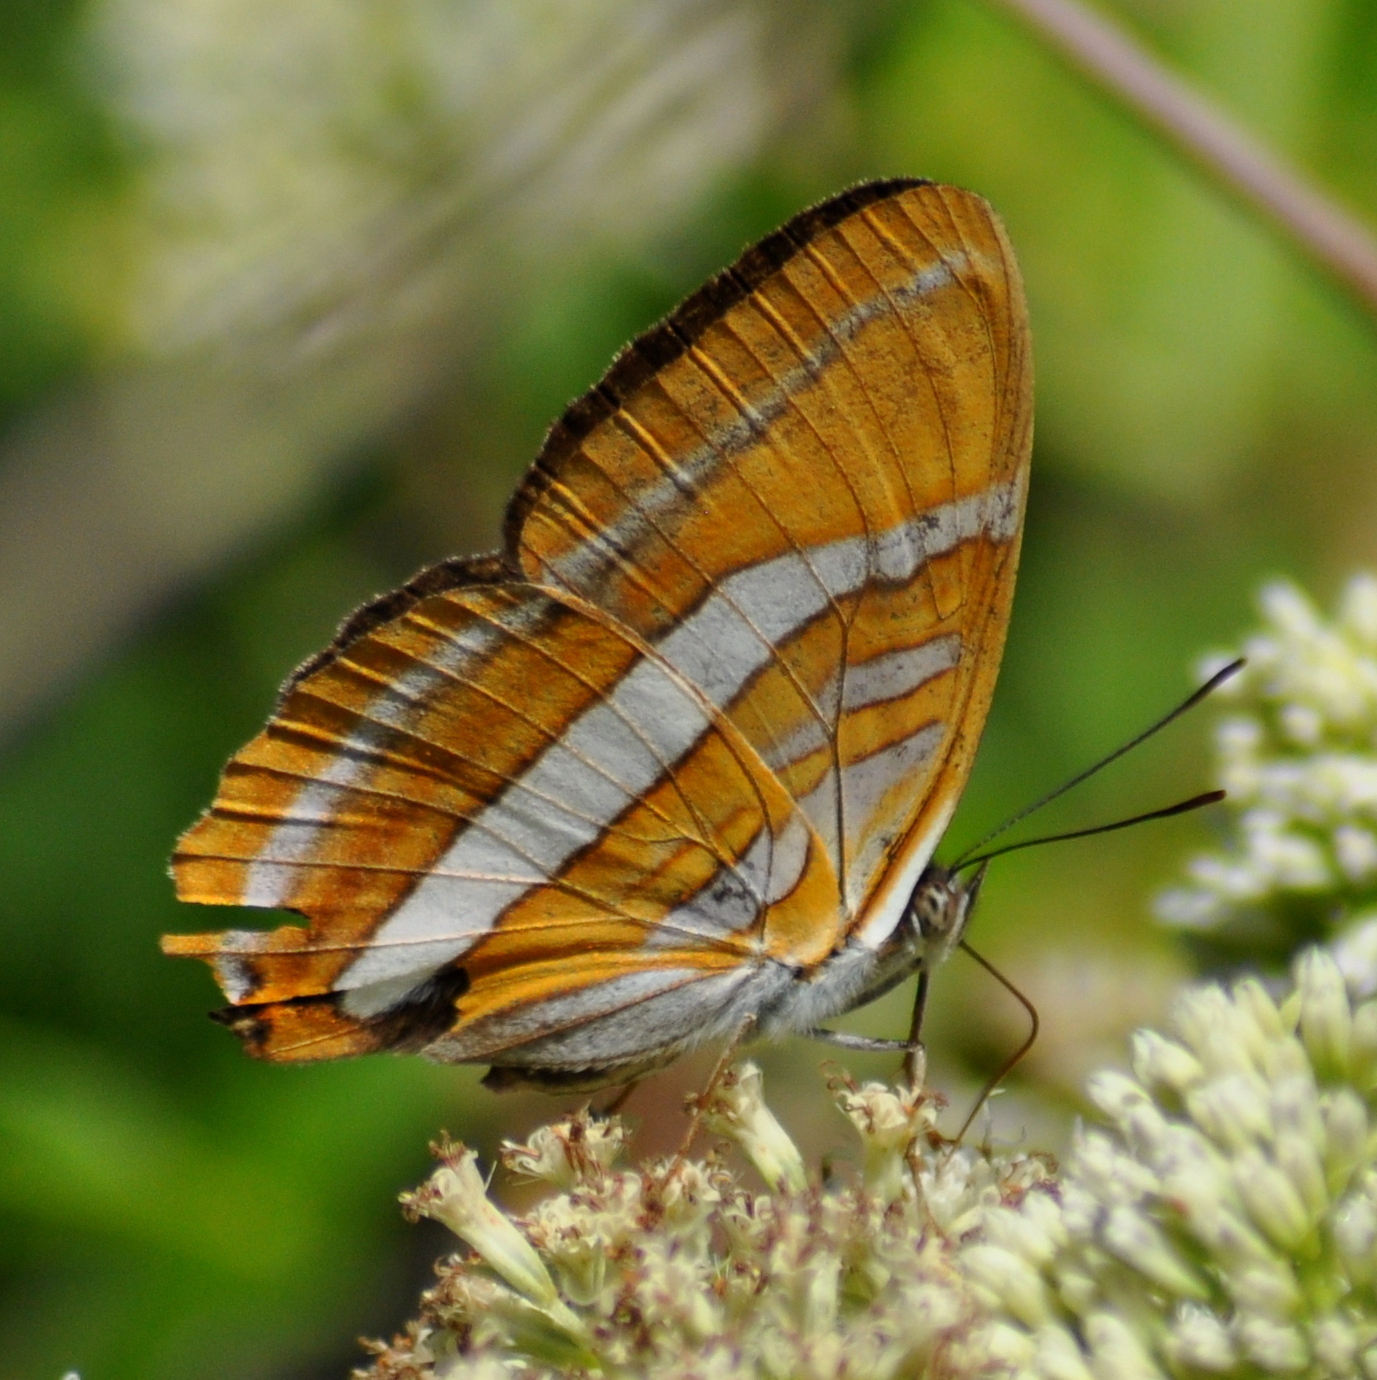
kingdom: Animalia
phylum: Arthropoda
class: Insecta
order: Lepidoptera
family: Nymphalidae
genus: Limenitis
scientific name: Limenitis mythra
